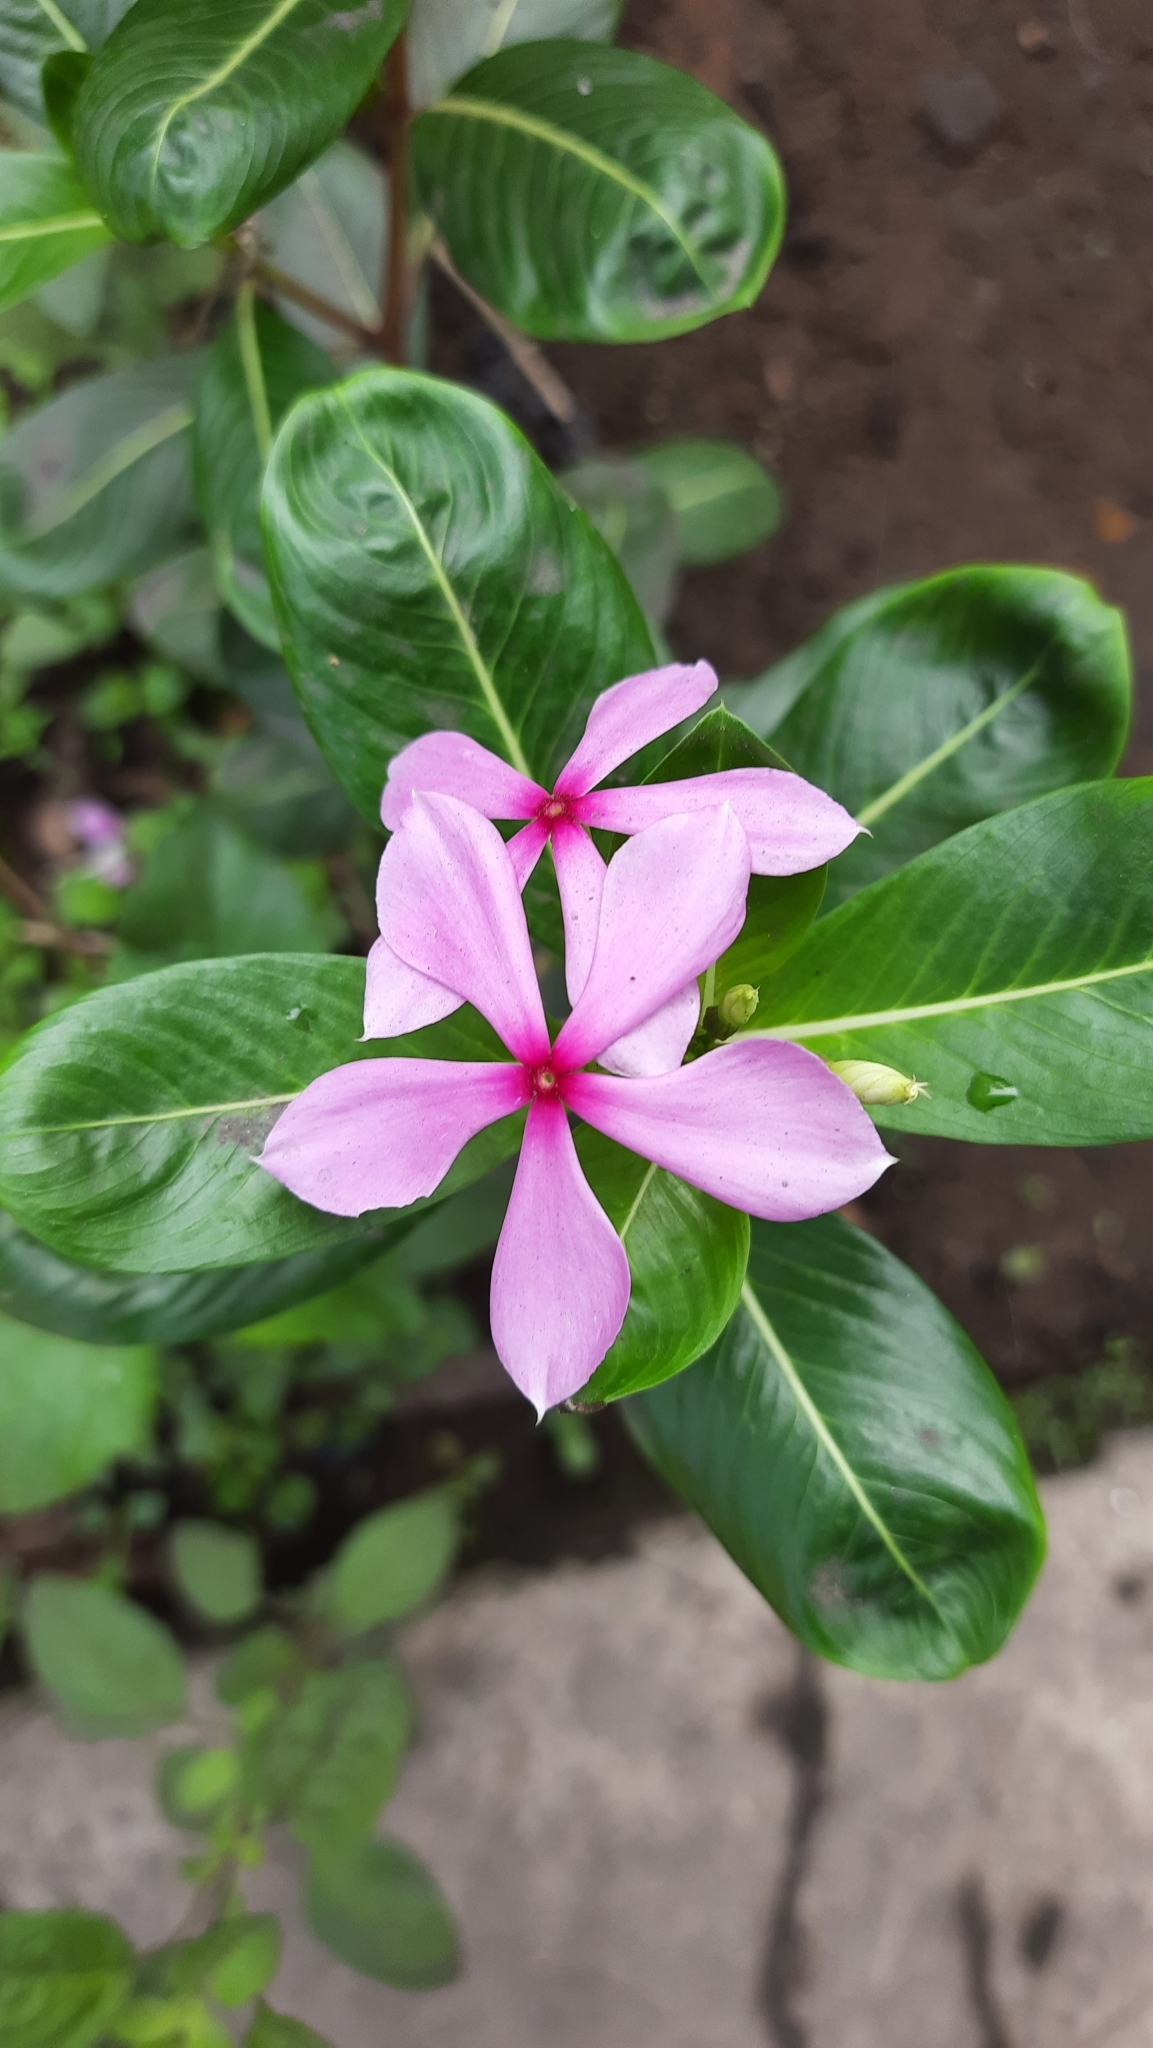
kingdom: Plantae
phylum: Tracheophyta
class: Magnoliopsida
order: Gentianales
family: Apocynaceae
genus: Catharanthus
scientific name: Catharanthus roseus
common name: Madagascar periwinkle
